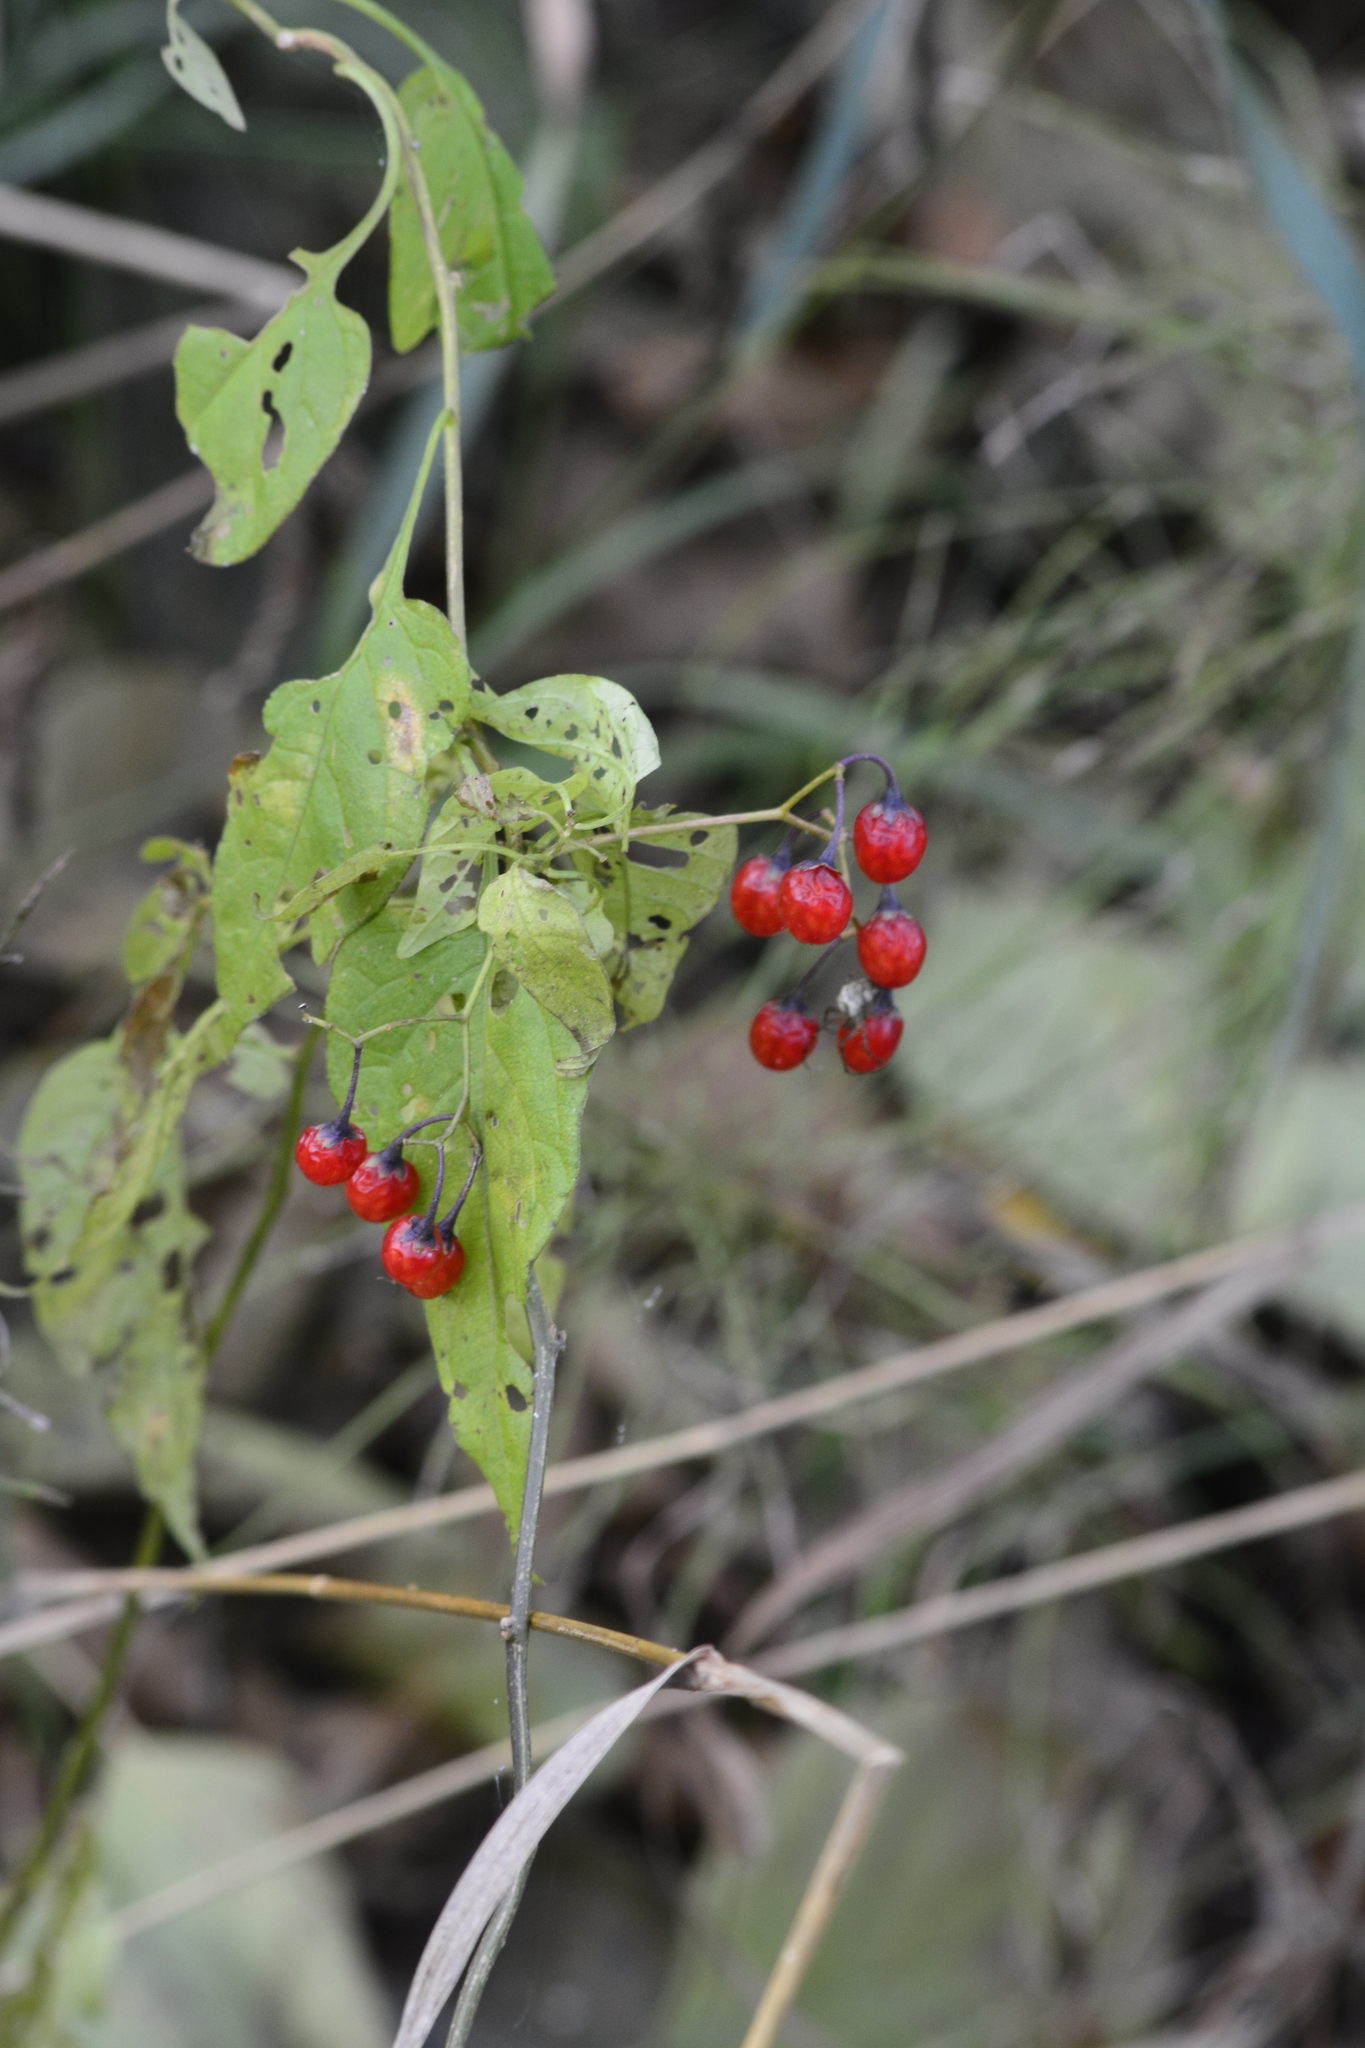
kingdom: Plantae
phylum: Tracheophyta
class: Magnoliopsida
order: Solanales
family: Solanaceae
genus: Solanum
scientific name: Solanum dulcamara
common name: Climbing nightshade
